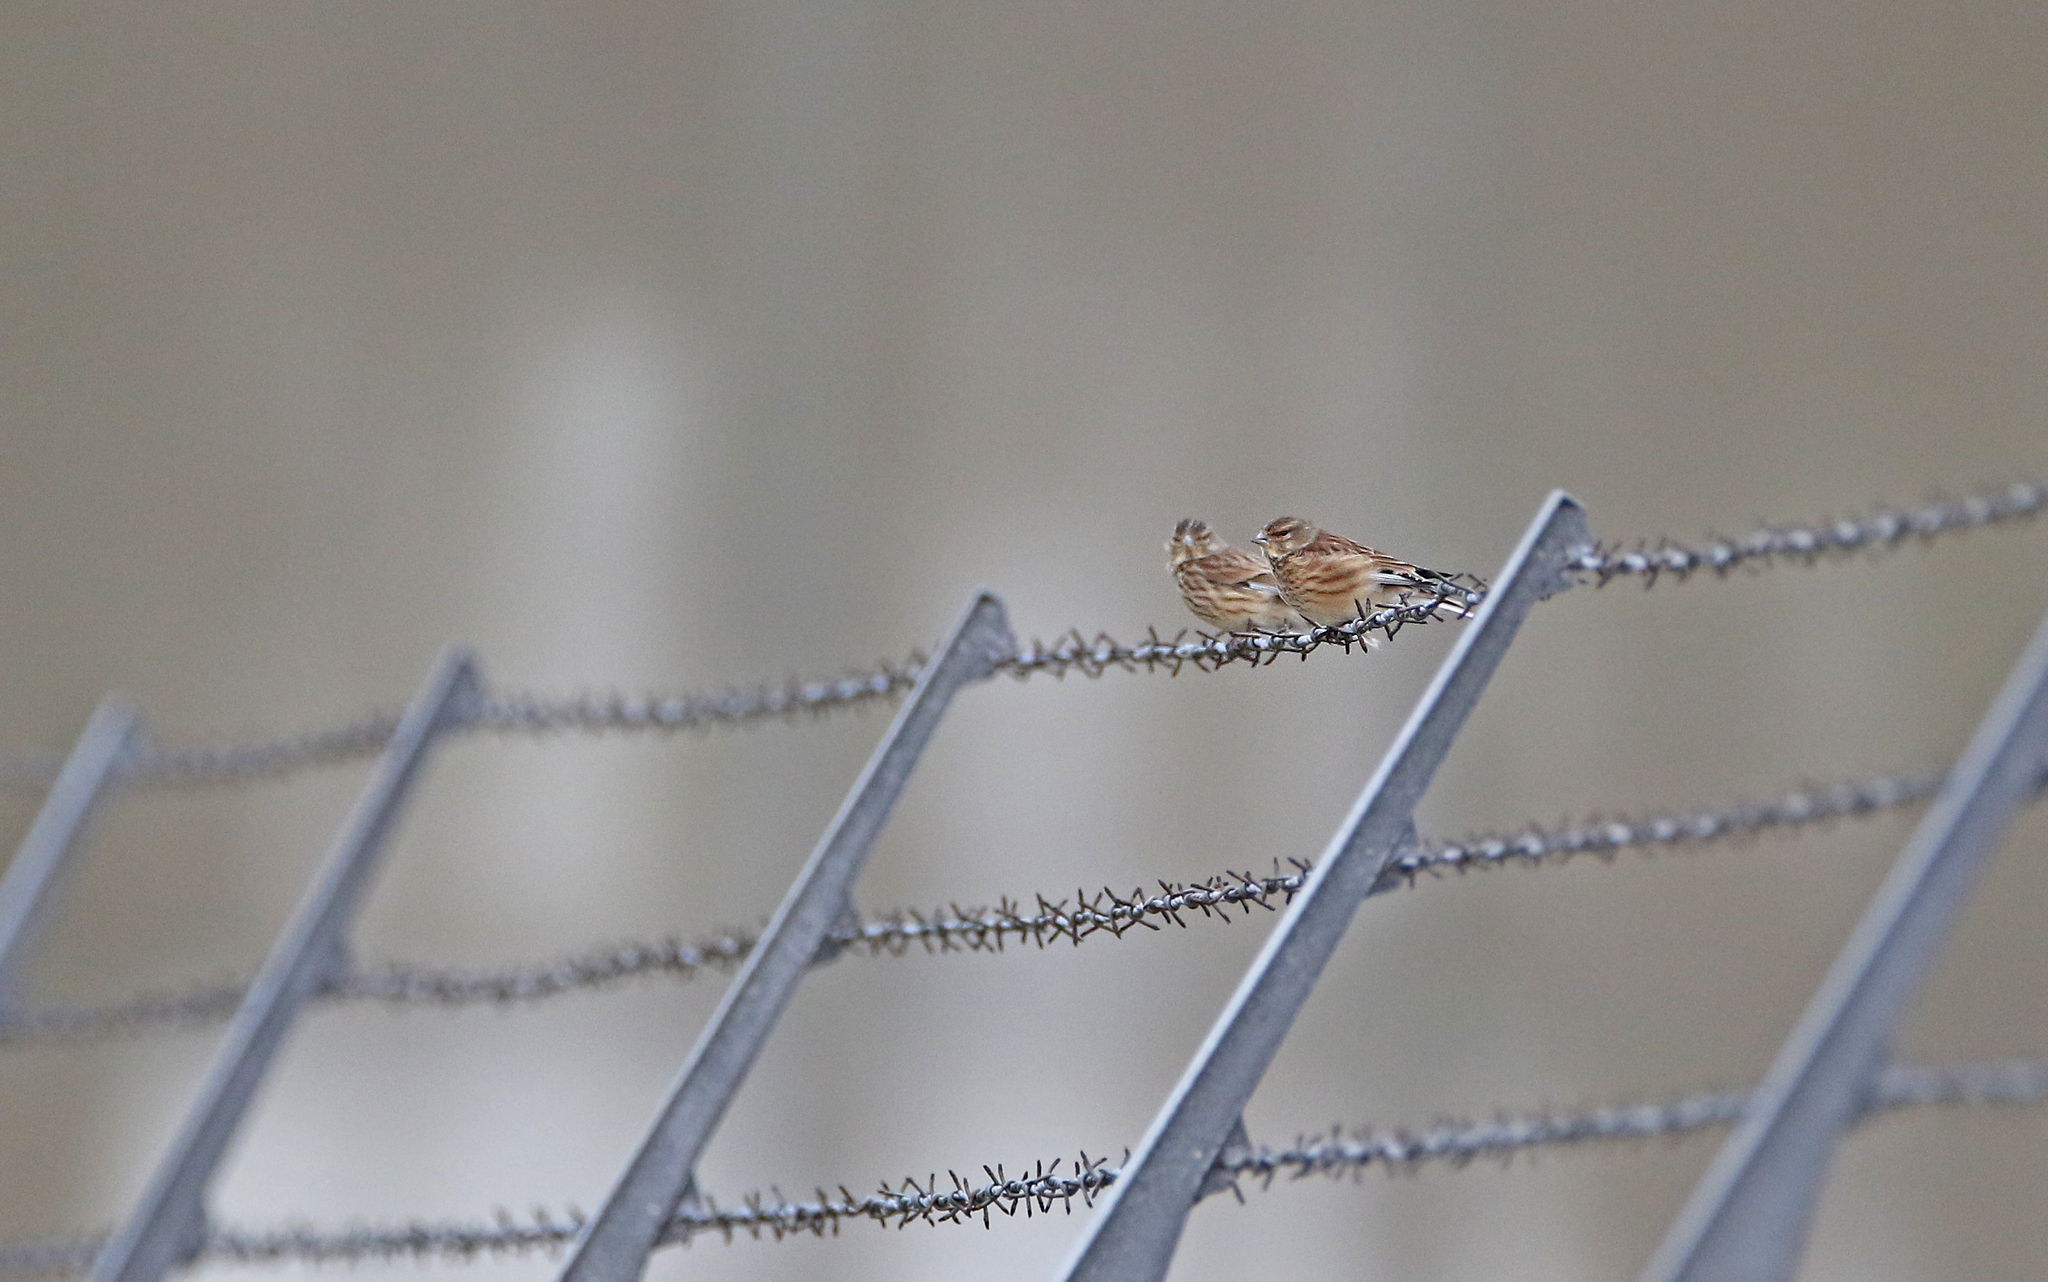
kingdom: Animalia
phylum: Chordata
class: Aves
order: Passeriformes
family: Fringillidae
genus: Linaria
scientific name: Linaria cannabina
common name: Common linnet
